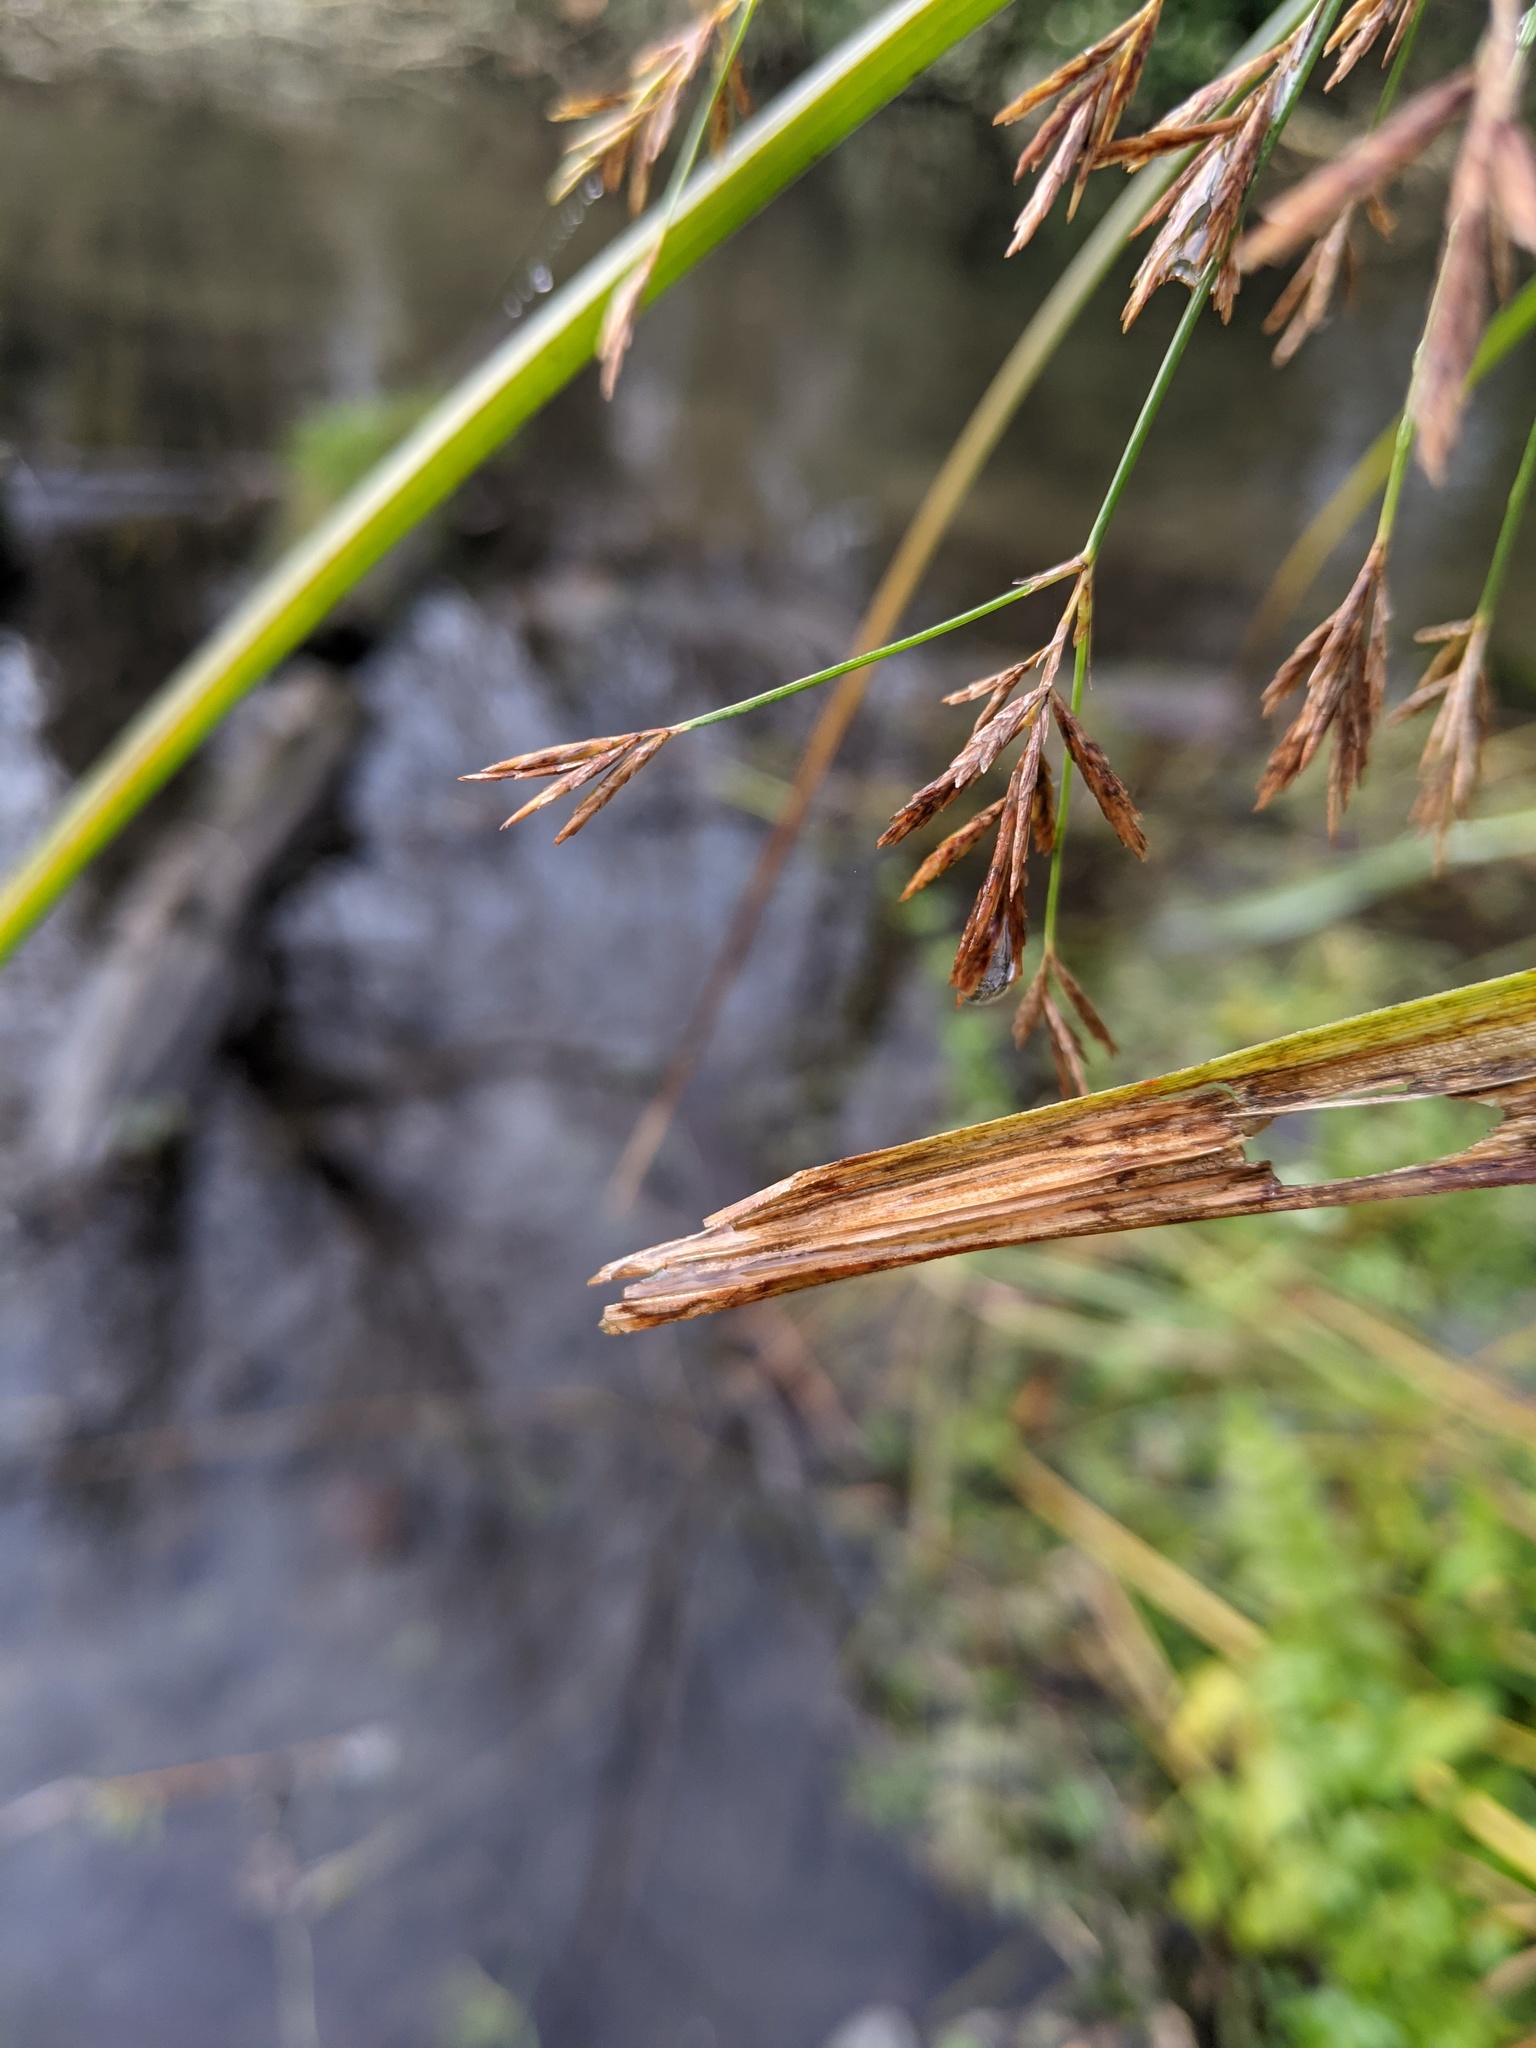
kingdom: Plantae
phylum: Tracheophyta
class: Liliopsida
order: Poales
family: Cyperaceae
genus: Cyperus
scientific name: Cyperus longus
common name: Galingale
